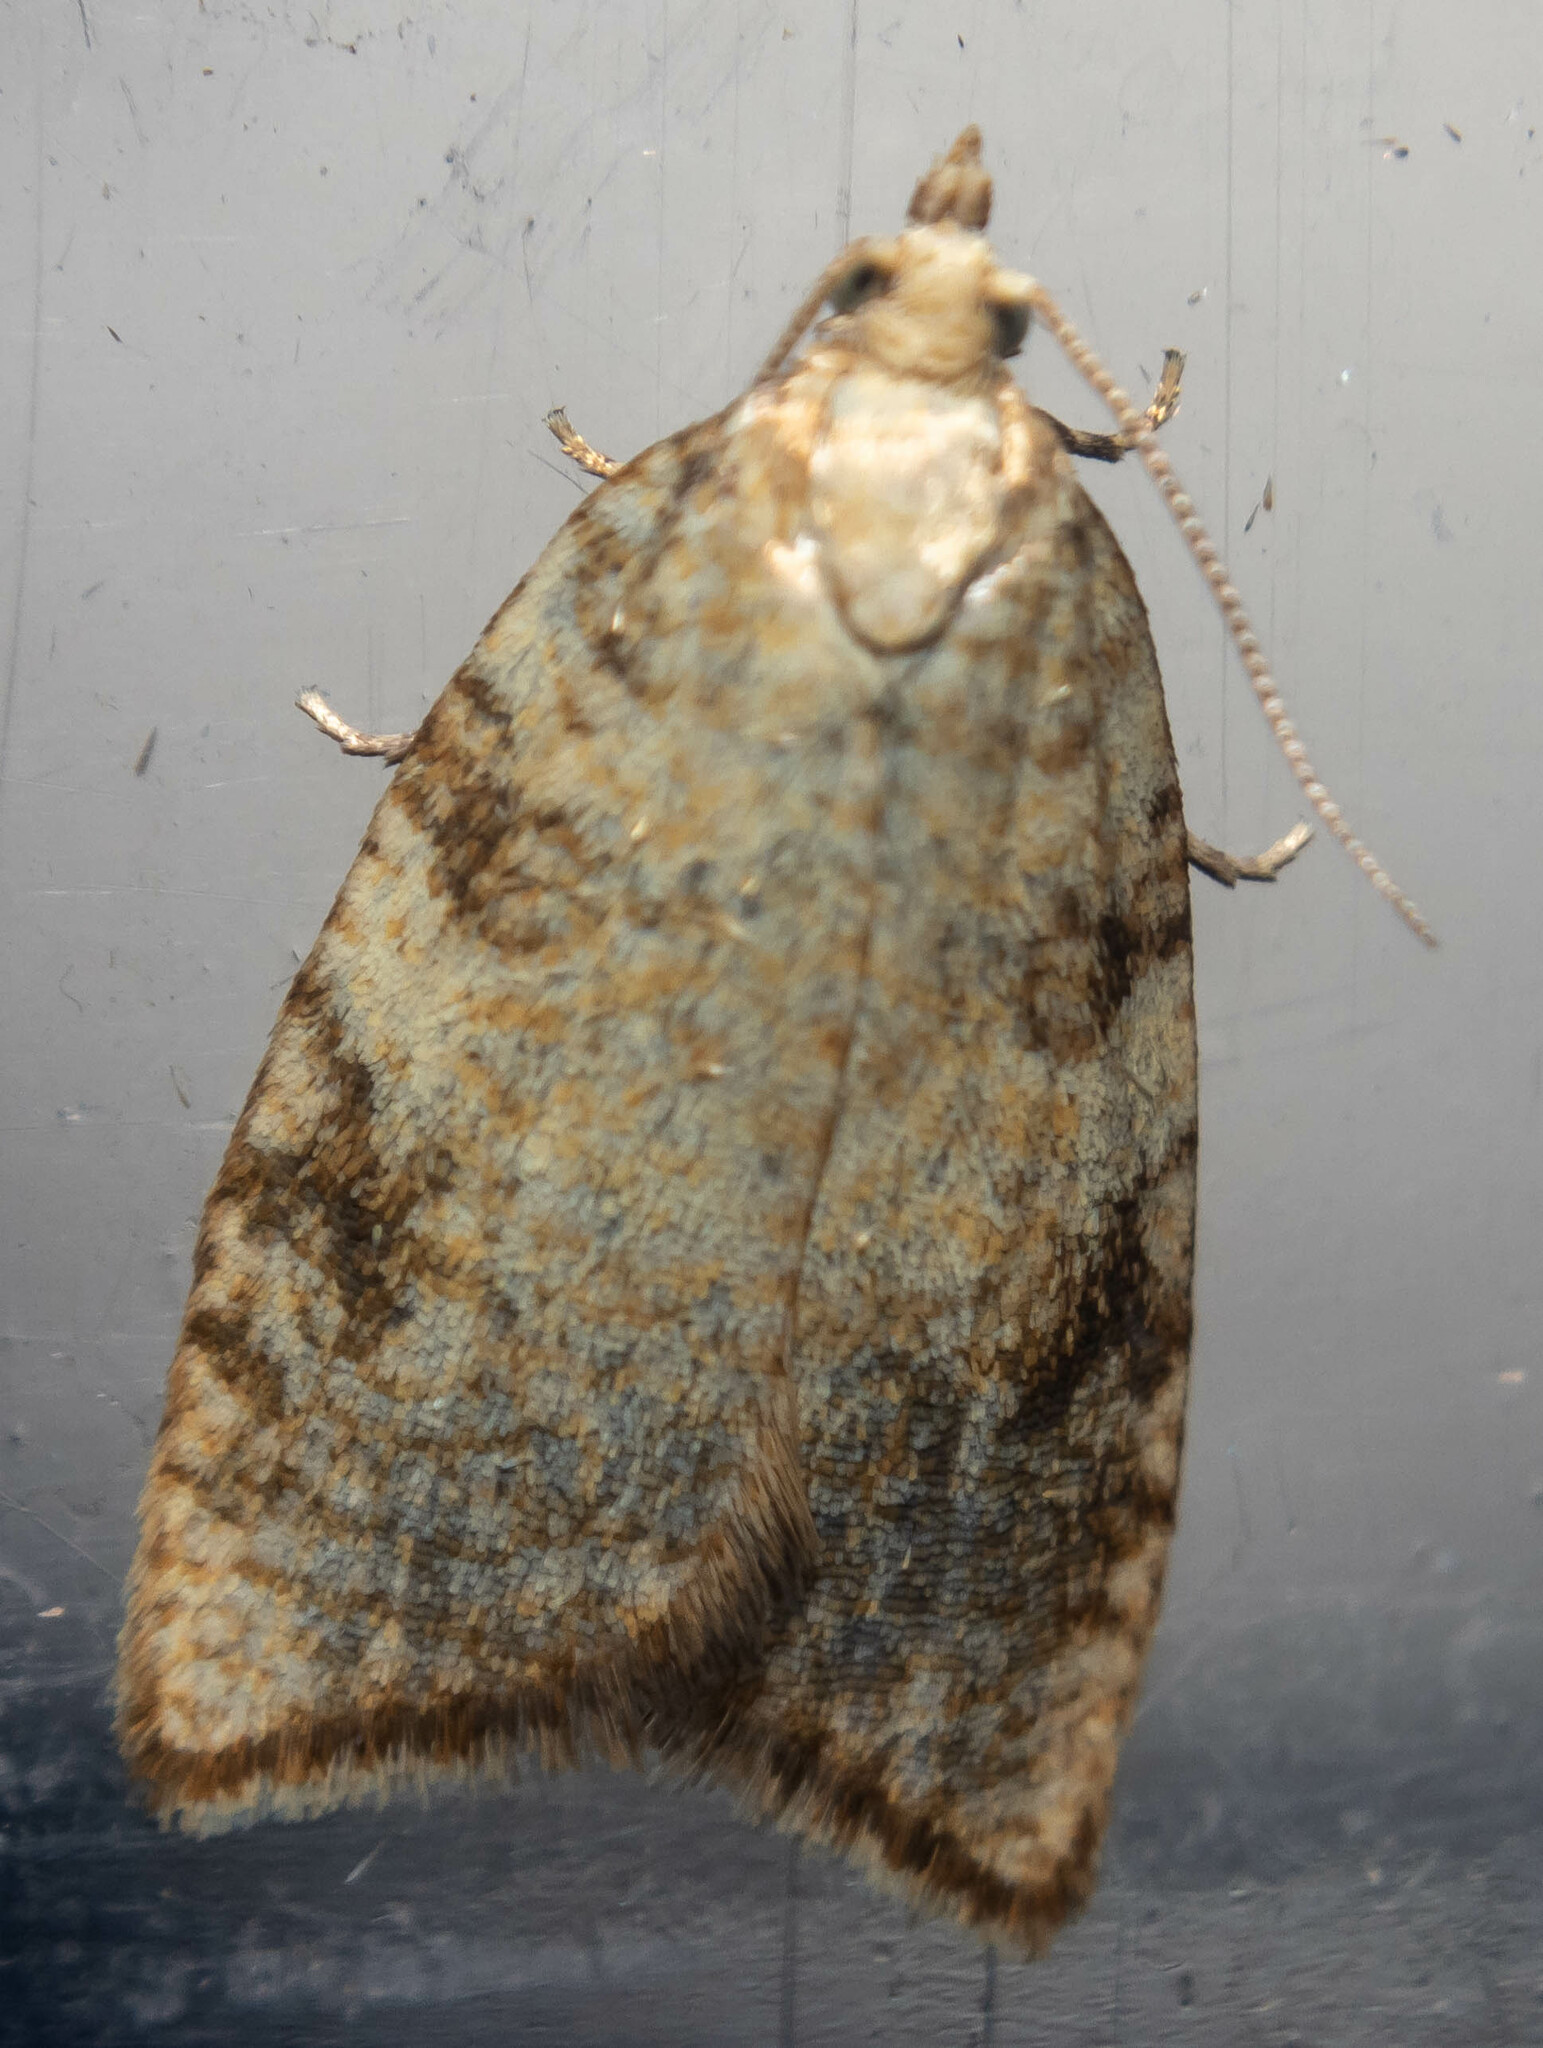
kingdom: Animalia
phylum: Arthropoda
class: Insecta
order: Lepidoptera
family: Tortricidae
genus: Aleimma
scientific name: Aleimma loeflingiana
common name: Yellow oak button
